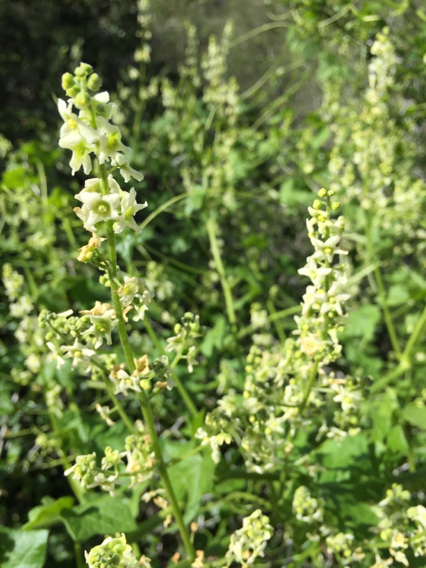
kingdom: Plantae
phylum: Tracheophyta
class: Magnoliopsida
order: Cucurbitales
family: Cucurbitaceae
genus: Marah
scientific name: Marah fabacea
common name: California manroot
